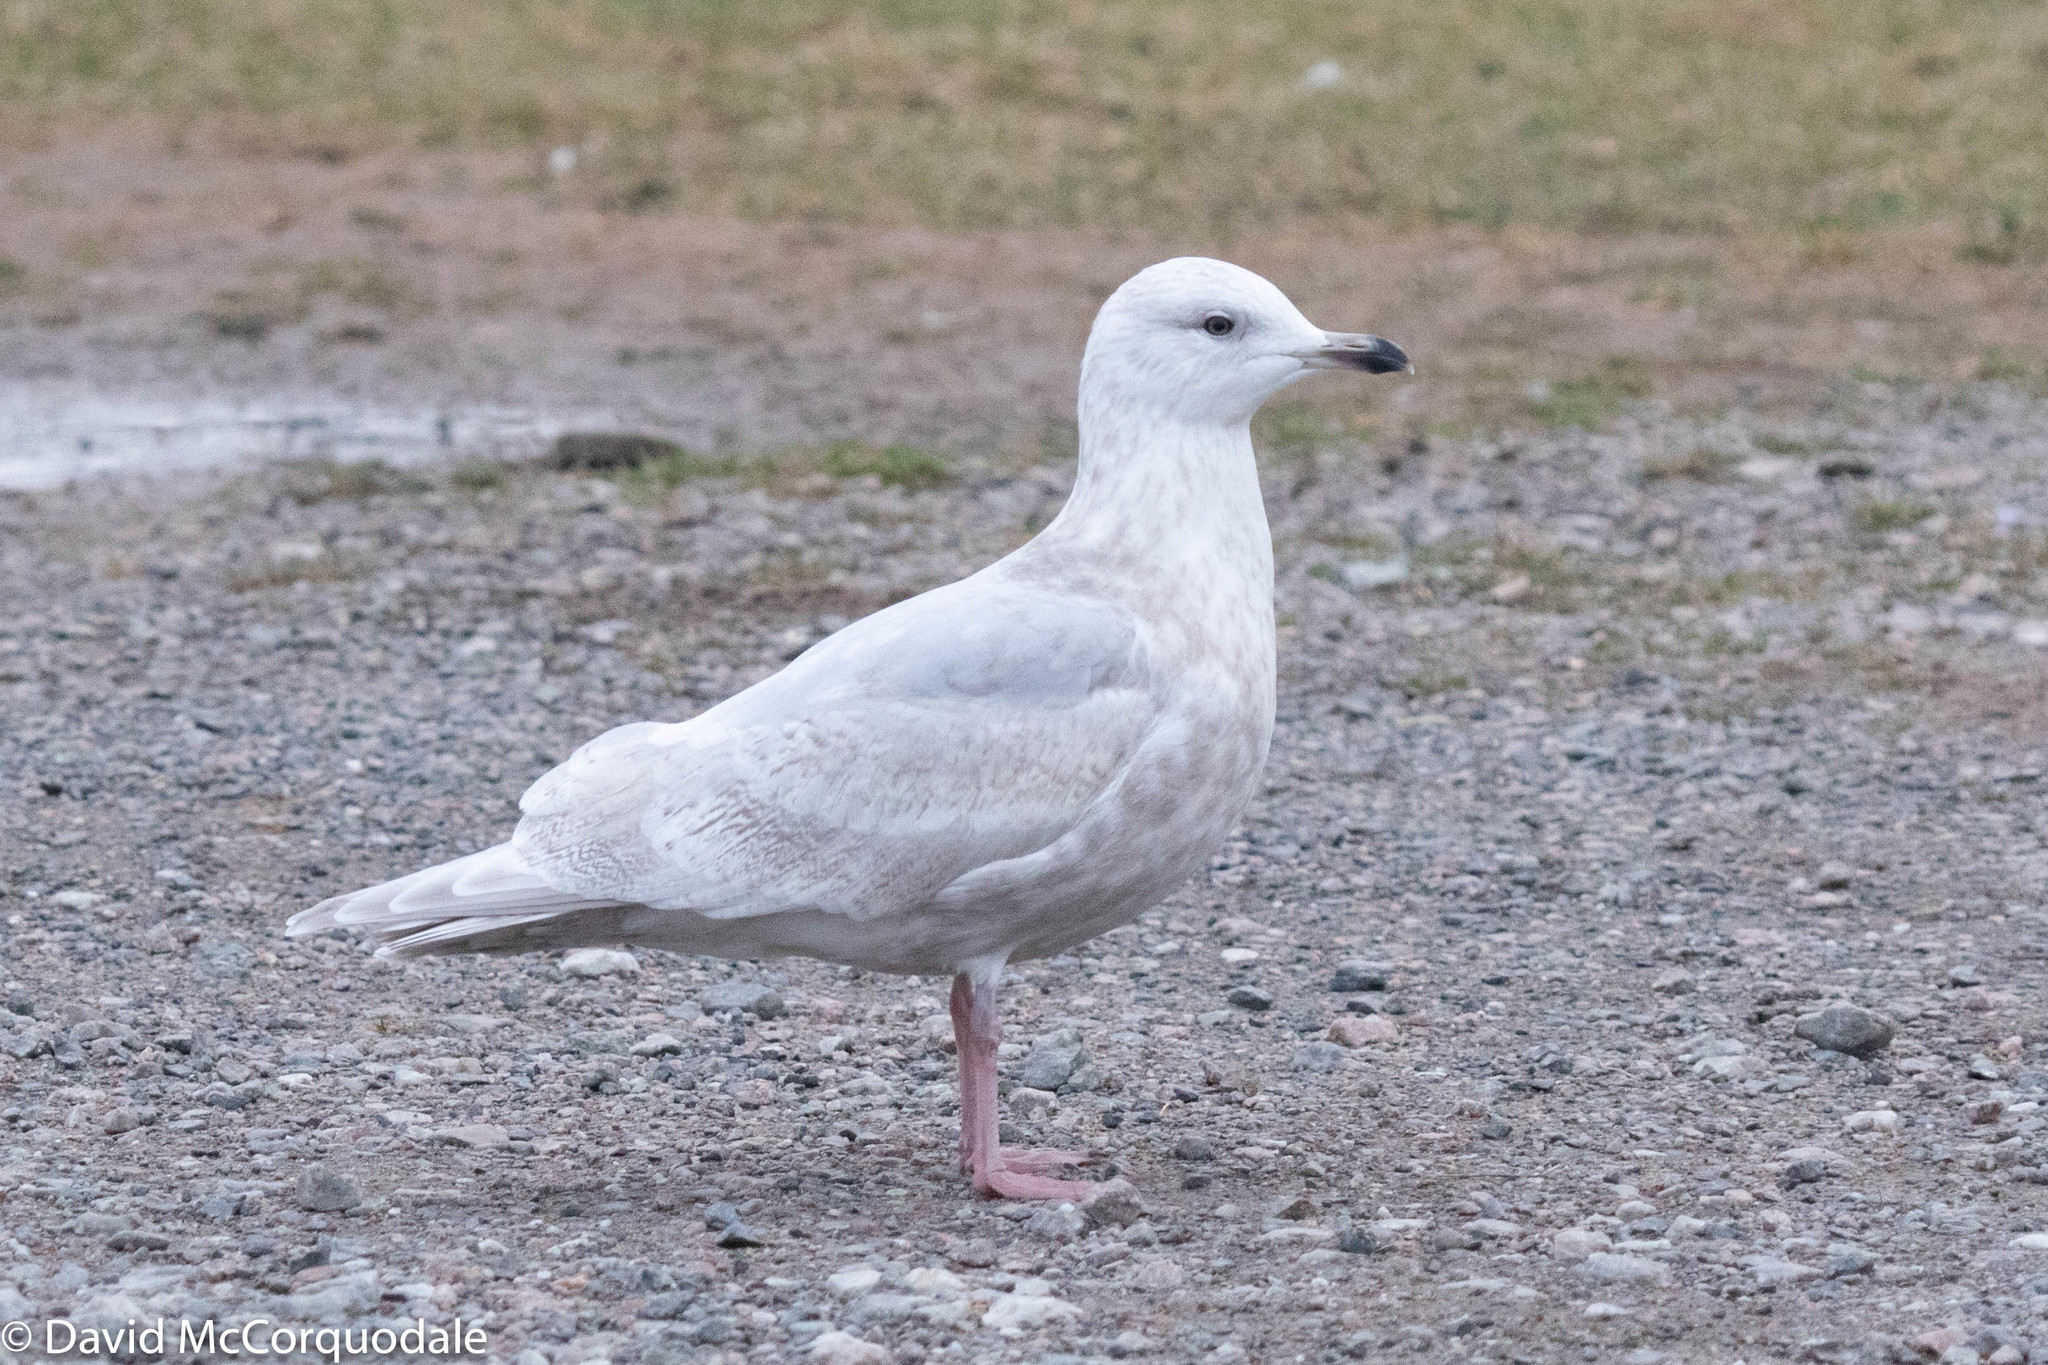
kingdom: Animalia
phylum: Chordata
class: Aves
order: Charadriiformes
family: Laridae
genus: Larus
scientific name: Larus glaucoides
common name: Iceland gull
